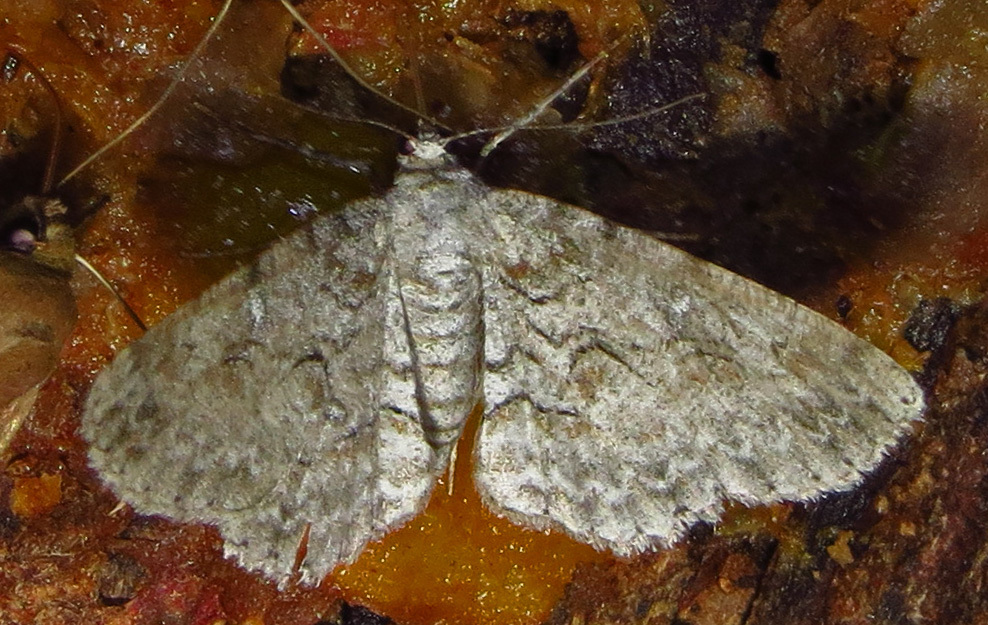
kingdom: Animalia
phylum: Arthropoda
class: Insecta
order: Lepidoptera
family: Geometridae
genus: Iridopsis
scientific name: Iridopsis defectaria
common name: Brown-shaded gray
